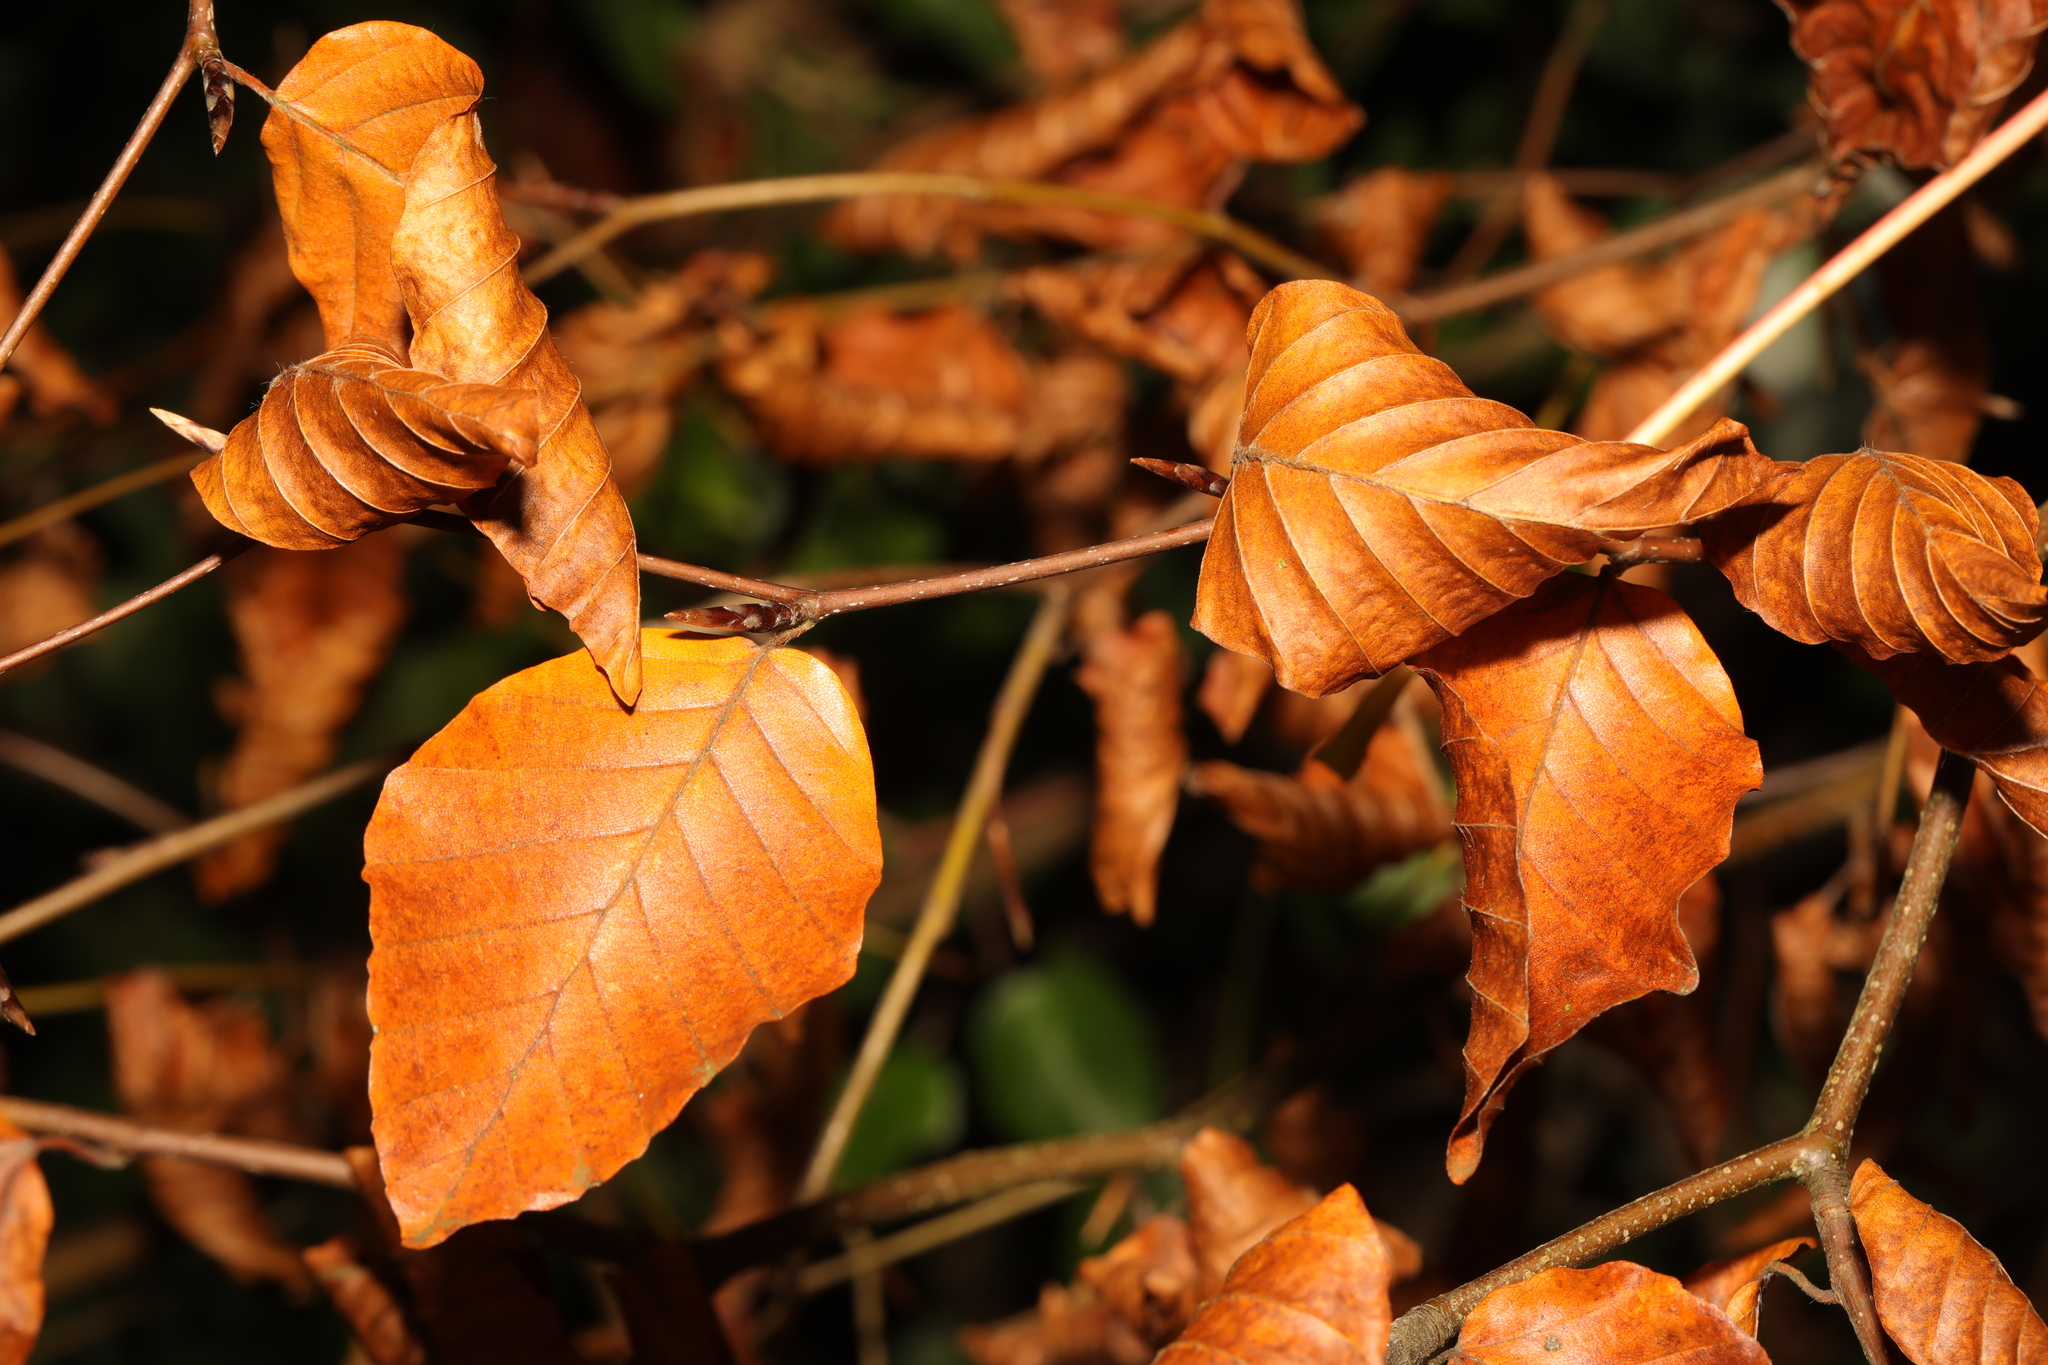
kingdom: Plantae
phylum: Tracheophyta
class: Magnoliopsida
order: Fagales
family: Fagaceae
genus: Fagus
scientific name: Fagus sylvatica
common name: Beech
